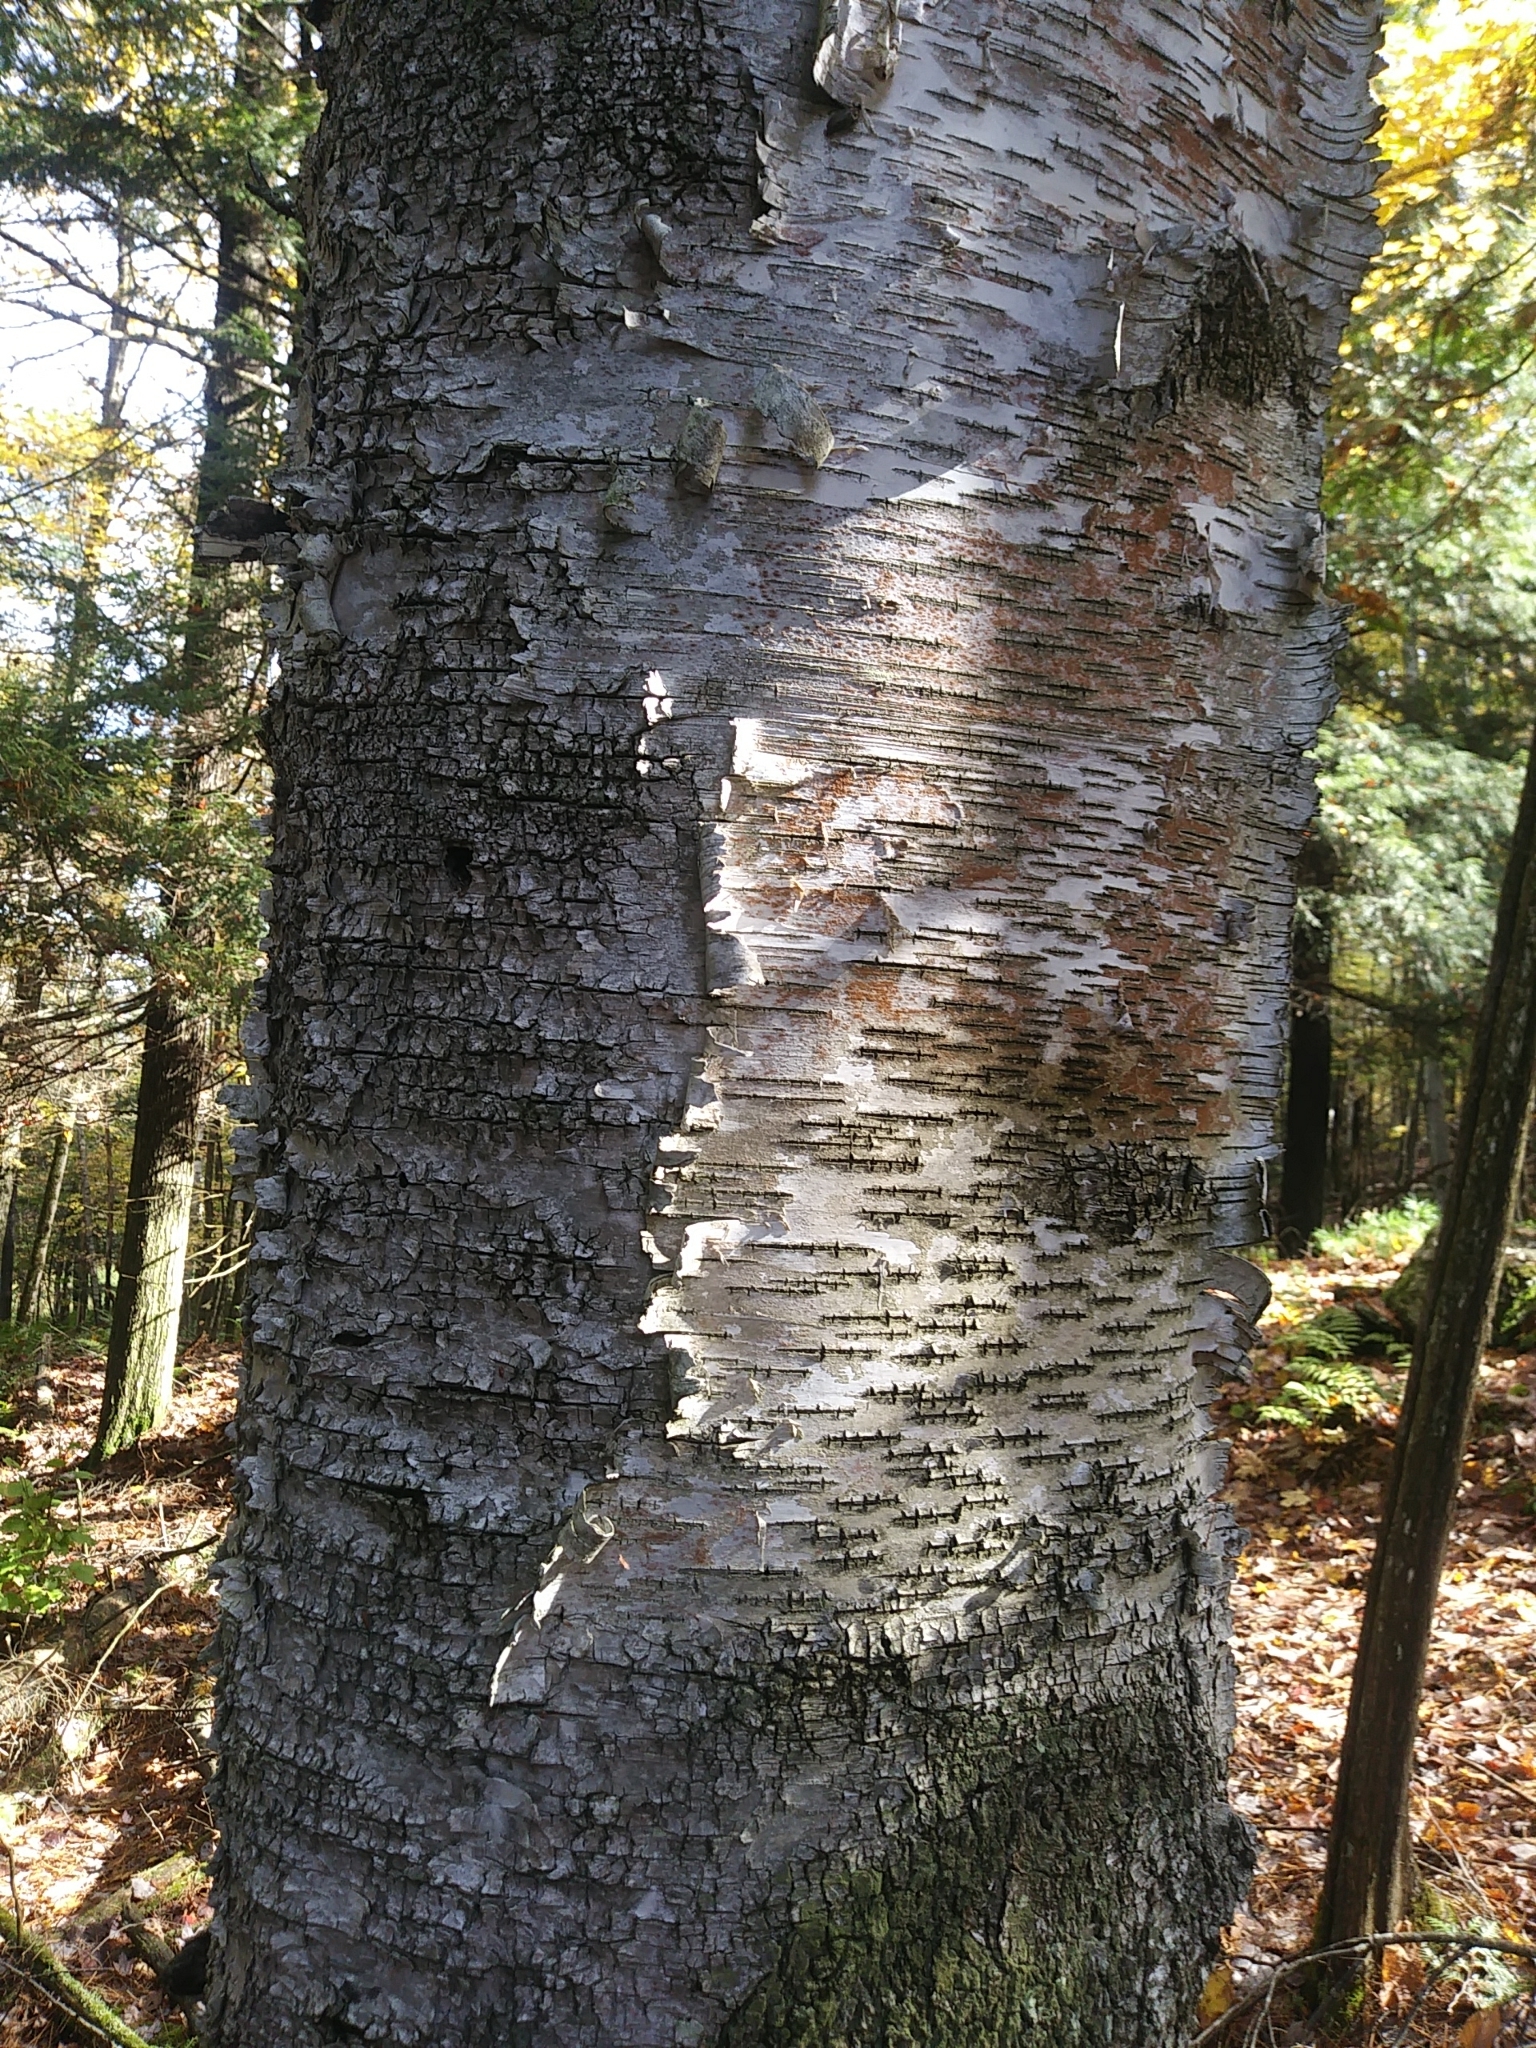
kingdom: Plantae
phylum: Tracheophyta
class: Magnoliopsida
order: Fagales
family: Betulaceae
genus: Betula
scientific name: Betula alleghaniensis
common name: Yellow birch
